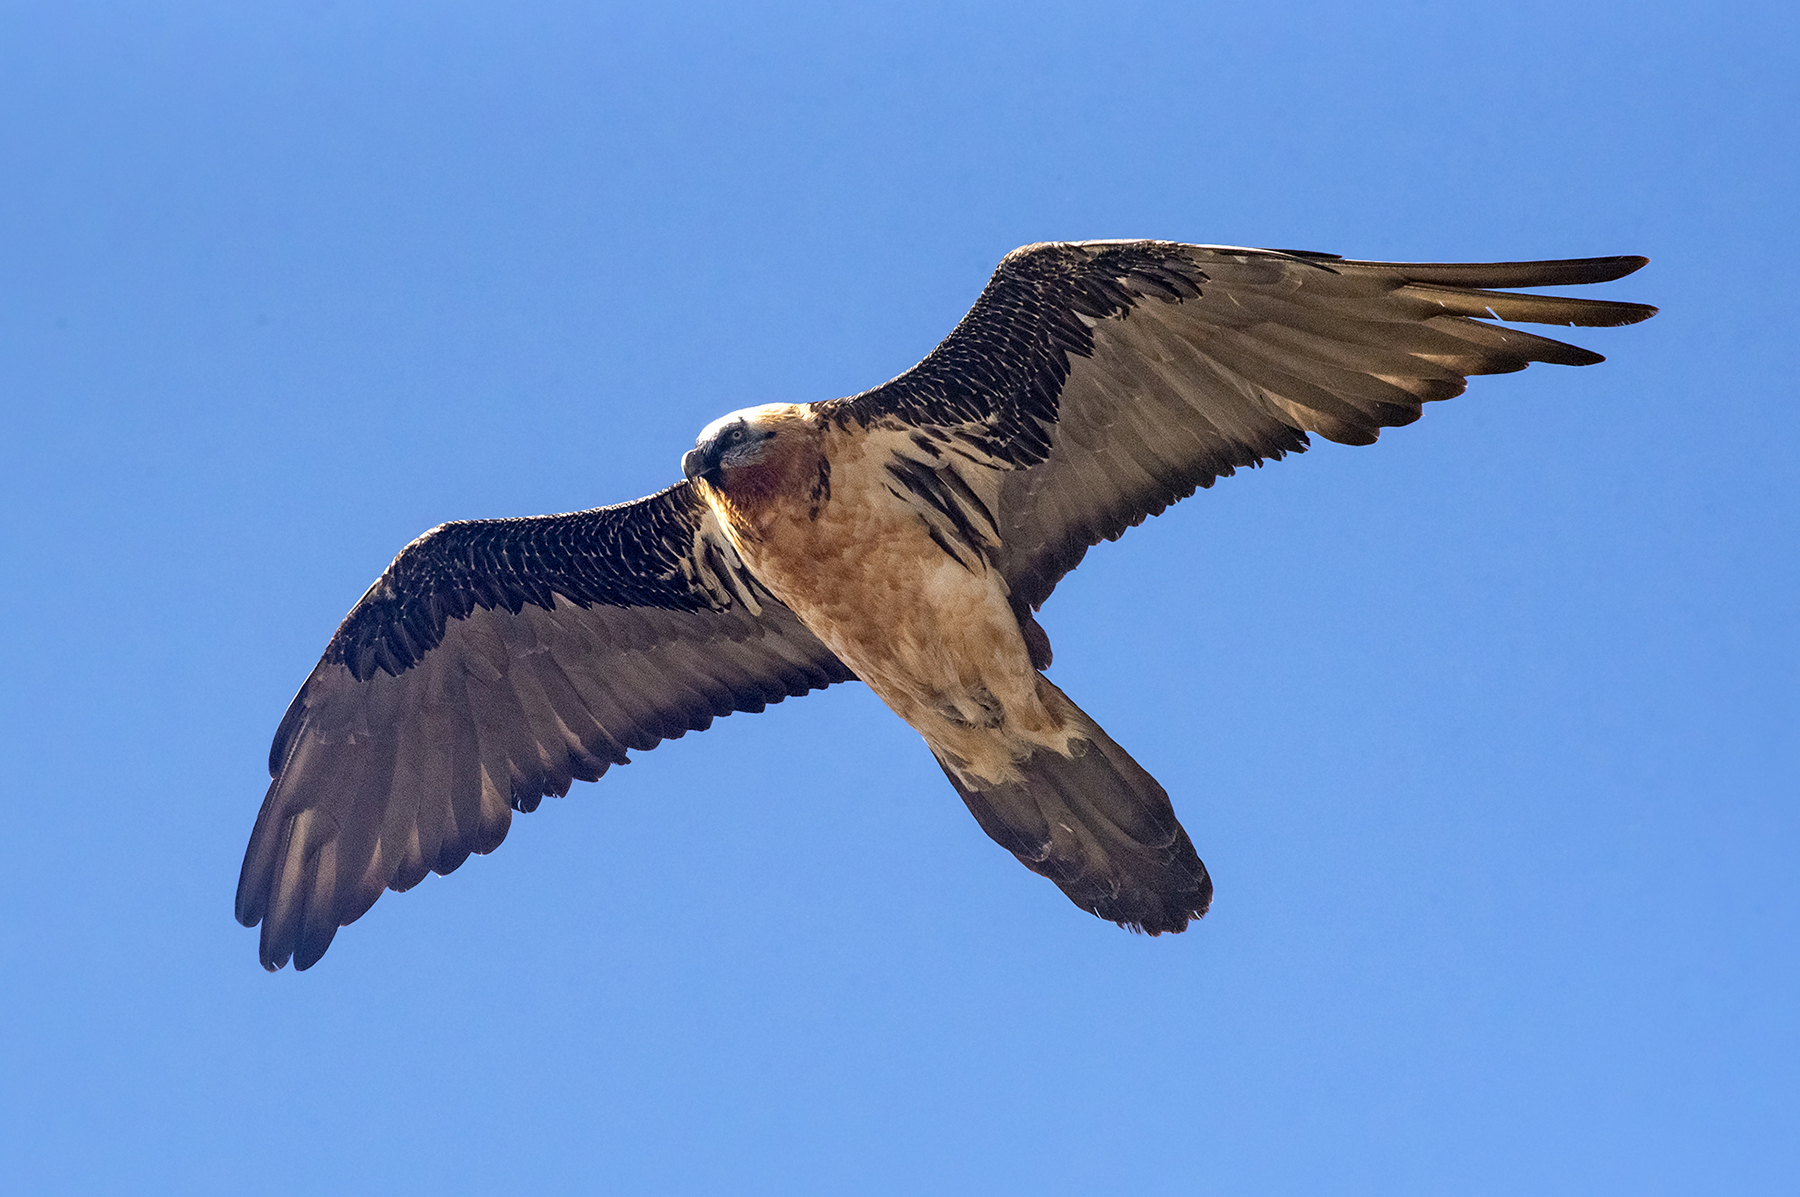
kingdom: Animalia
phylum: Chordata
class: Aves
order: Accipitriformes
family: Accipitridae
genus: Gypaetus
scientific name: Gypaetus barbatus
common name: Bearded vulture
